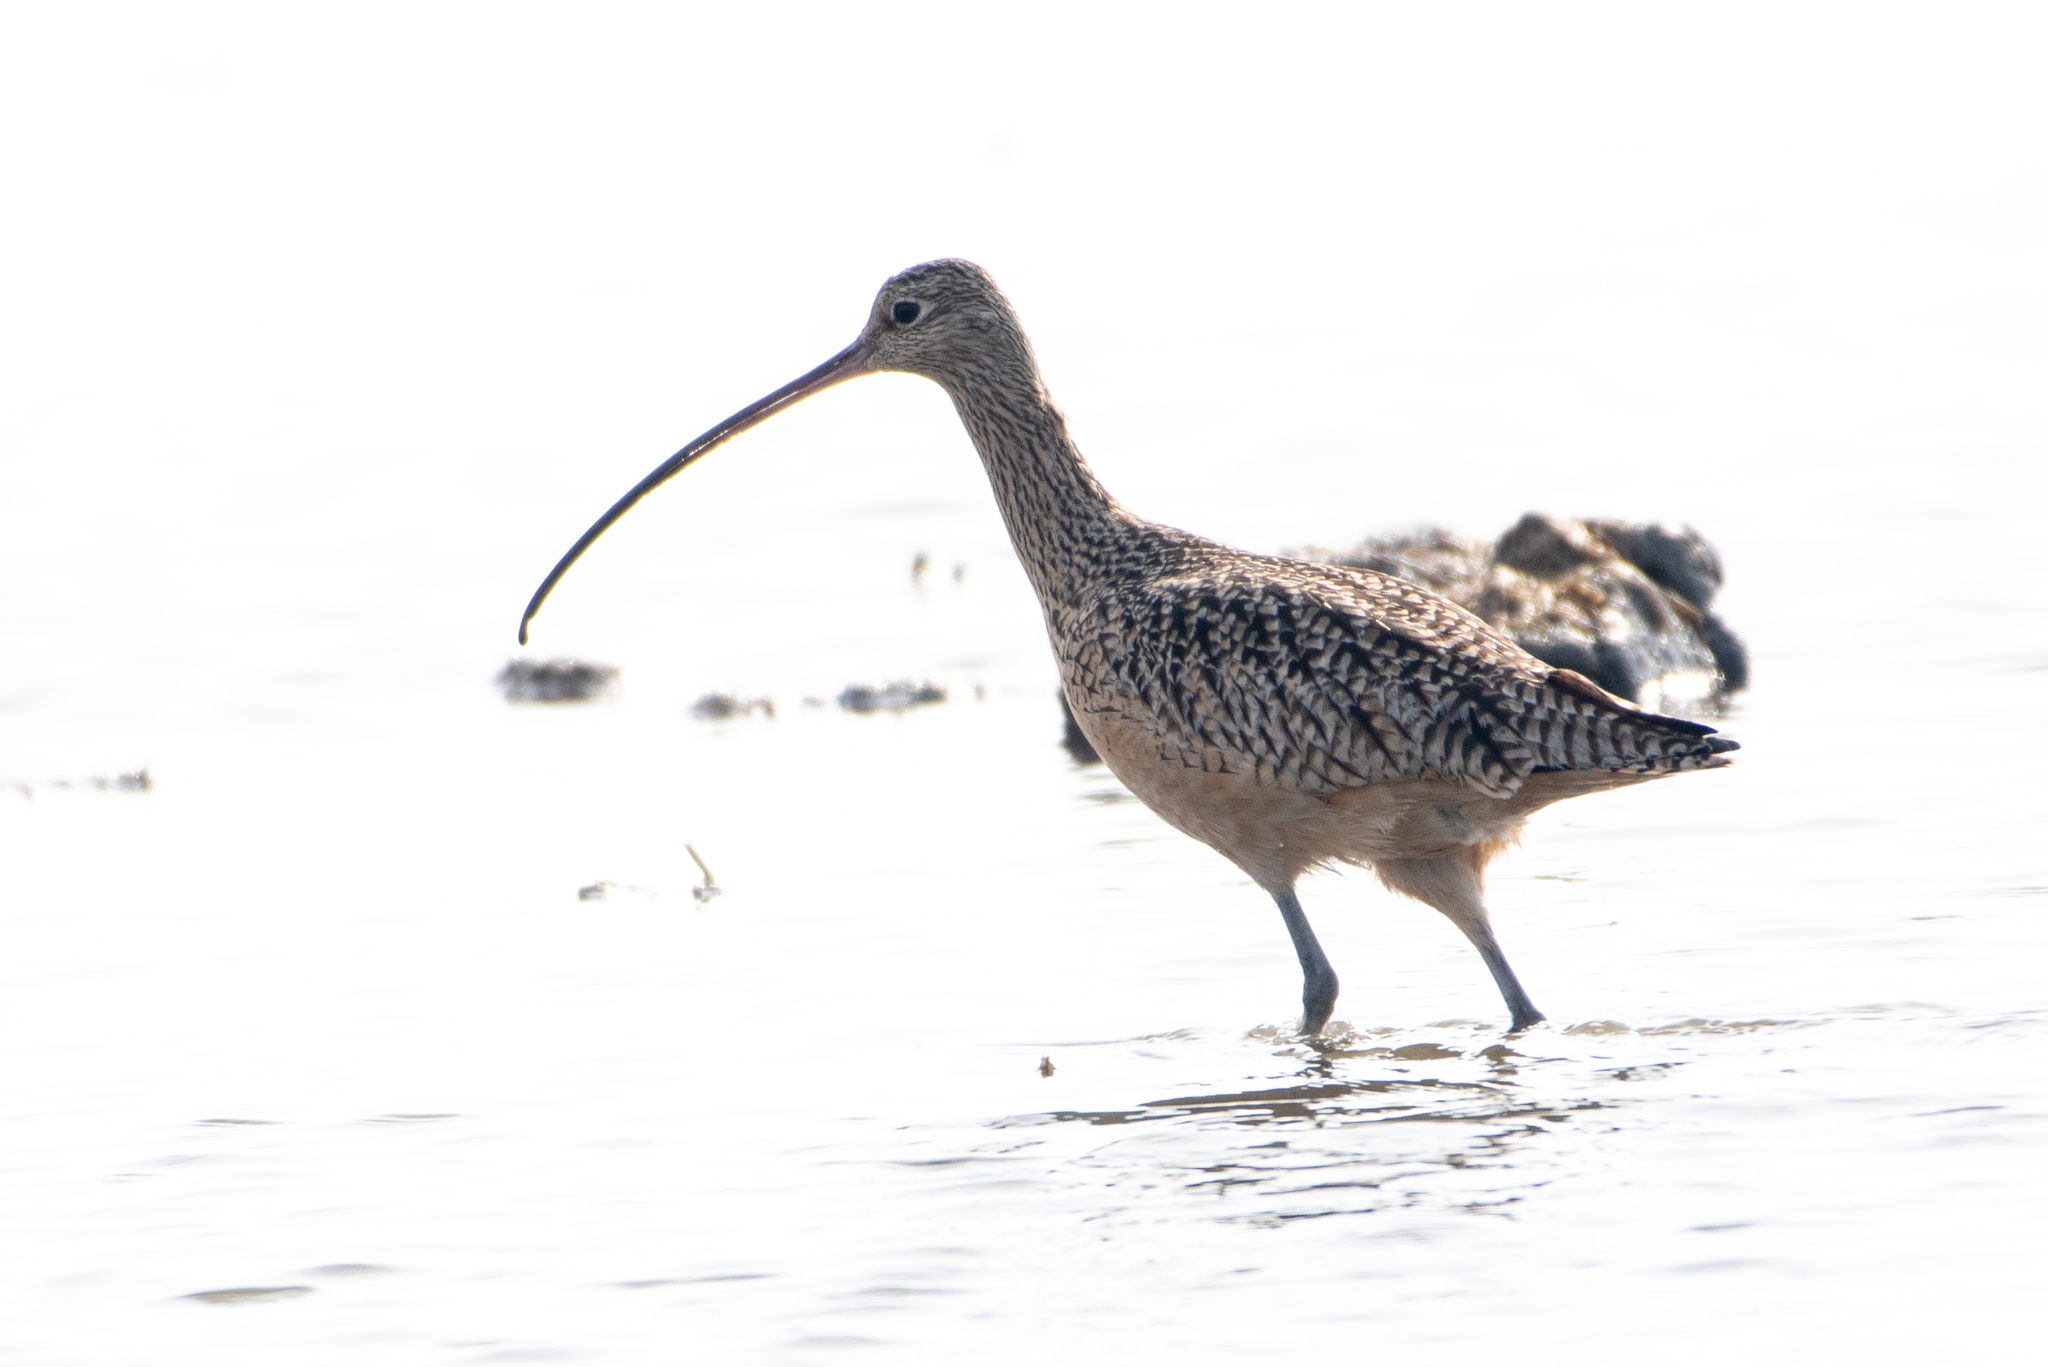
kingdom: Animalia
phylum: Chordata
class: Aves
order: Charadriiformes
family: Scolopacidae
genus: Numenius
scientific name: Numenius americanus
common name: Long-billed curlew
